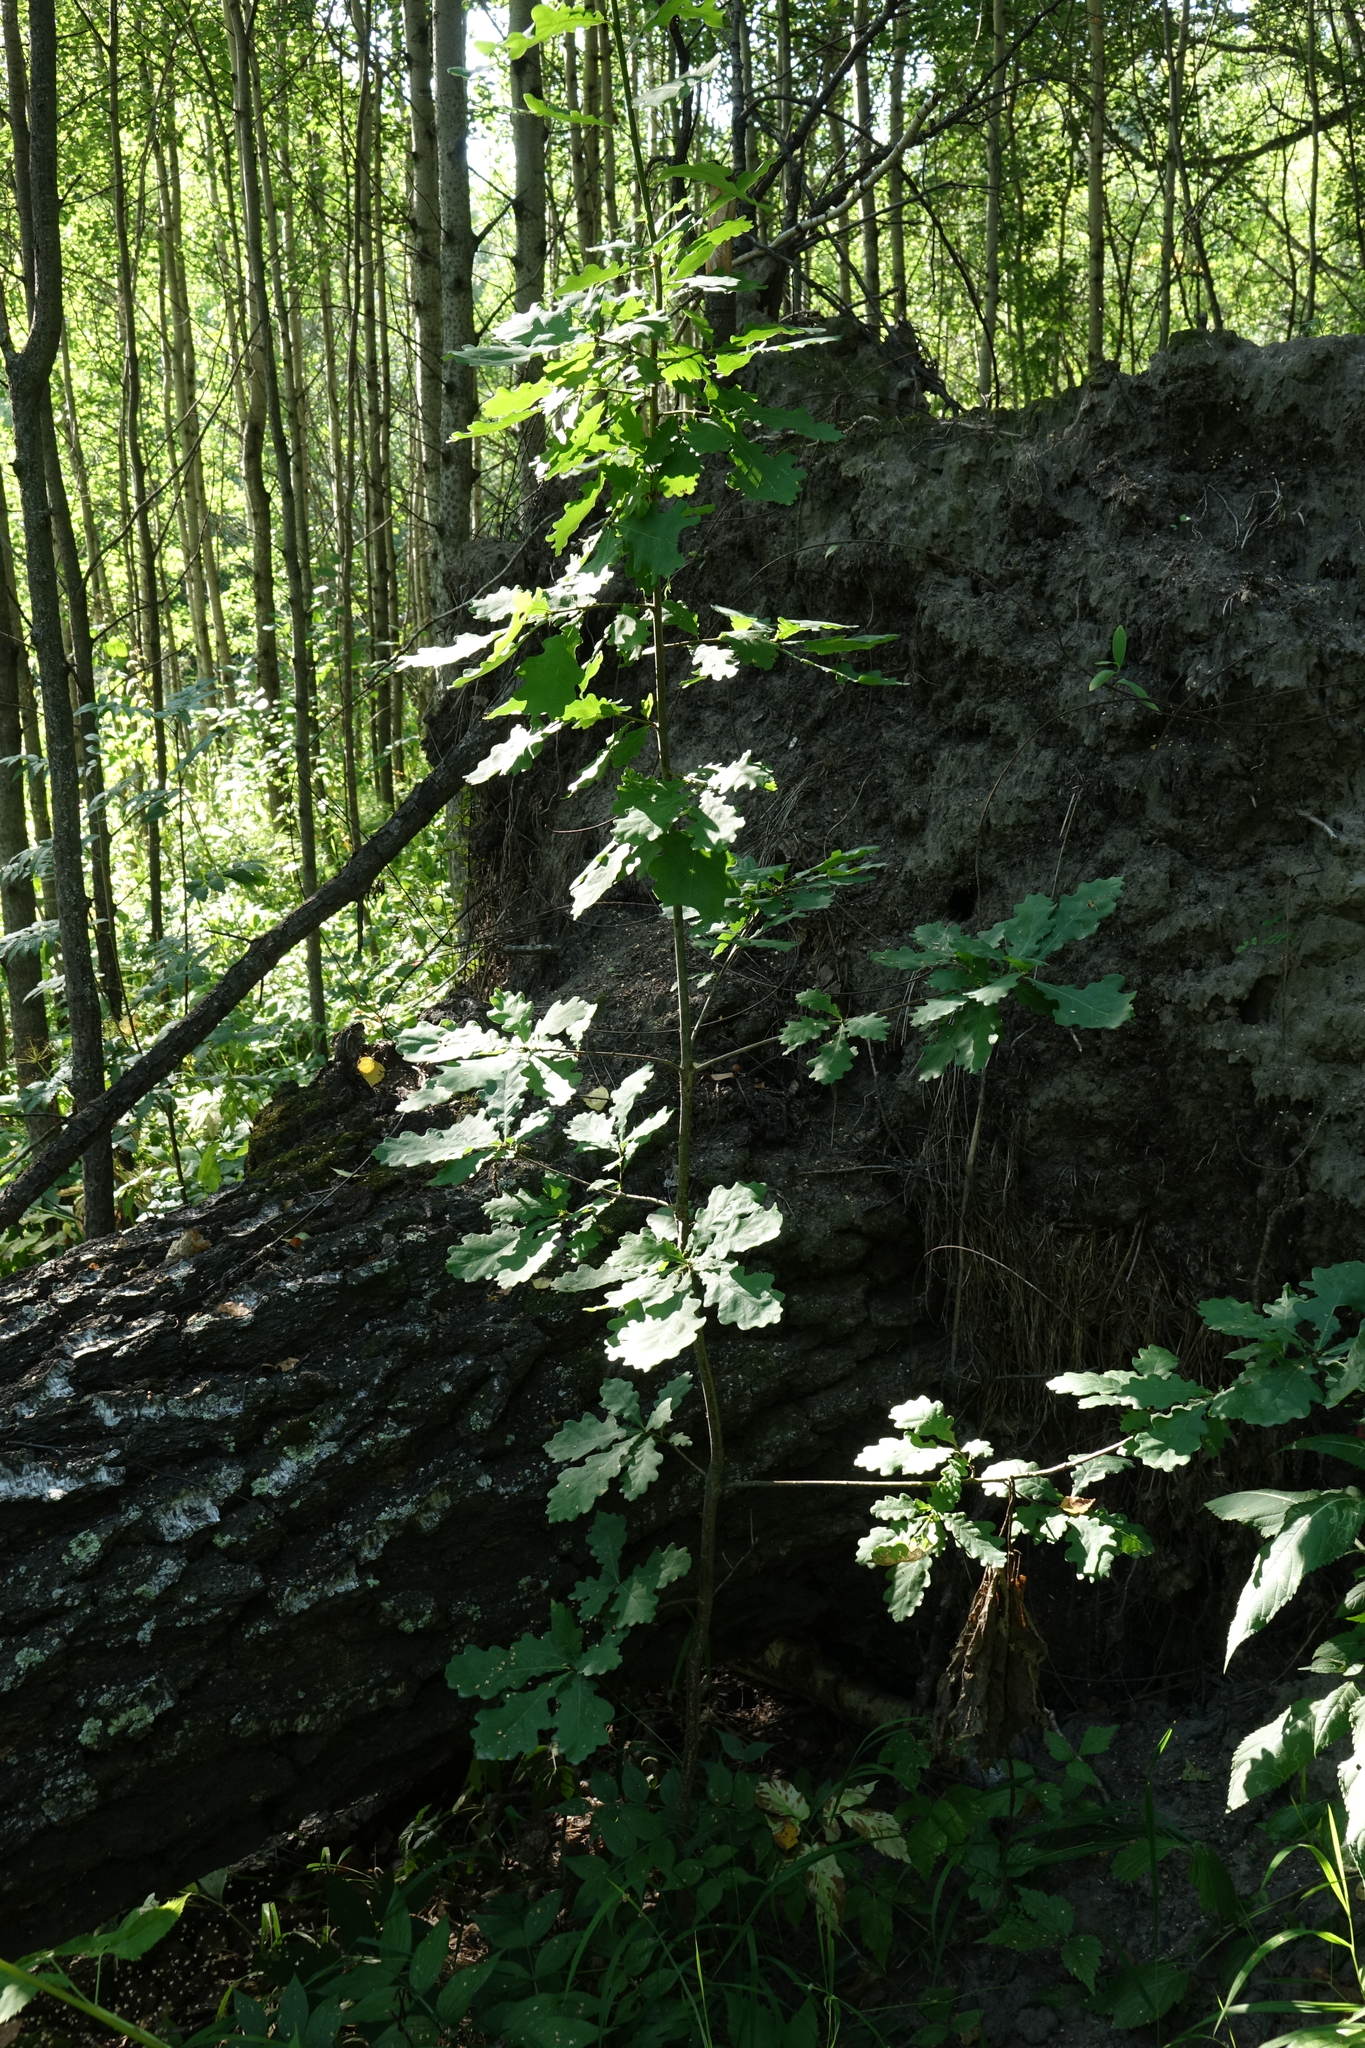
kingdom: Plantae
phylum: Tracheophyta
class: Magnoliopsida
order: Fagales
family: Fagaceae
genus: Quercus
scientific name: Quercus robur
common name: Pedunculate oak
